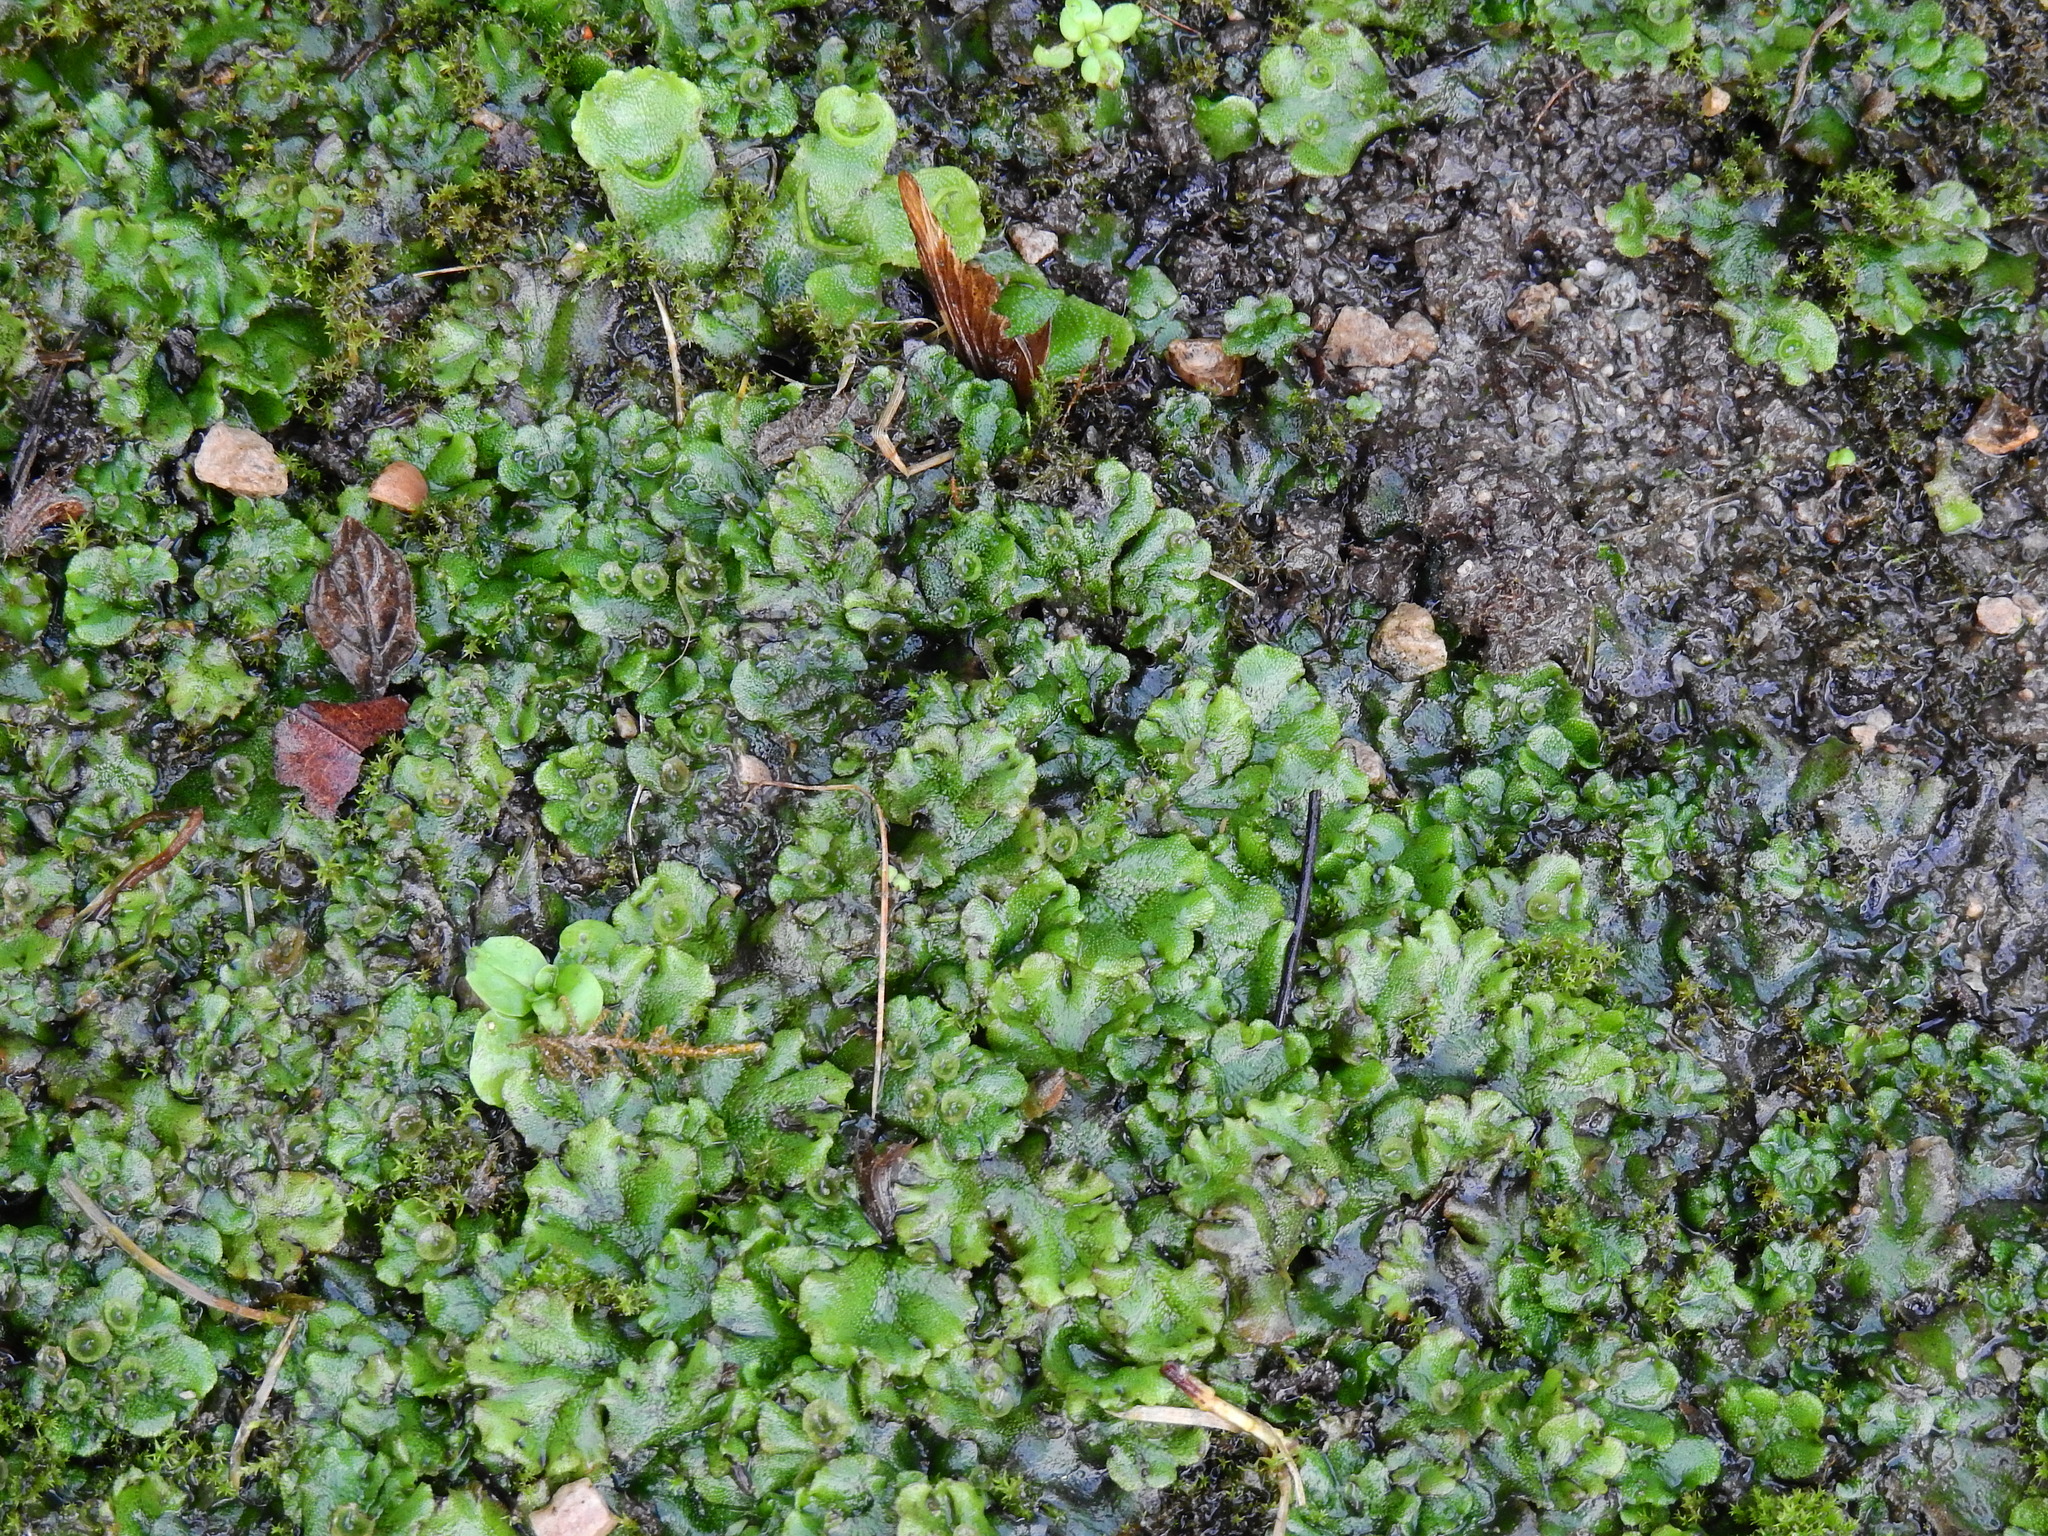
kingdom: Plantae
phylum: Marchantiophyta
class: Marchantiopsida
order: Marchantiales
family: Marchantiaceae
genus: Marchantia
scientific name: Marchantia polymorpha
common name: Common liverwort
